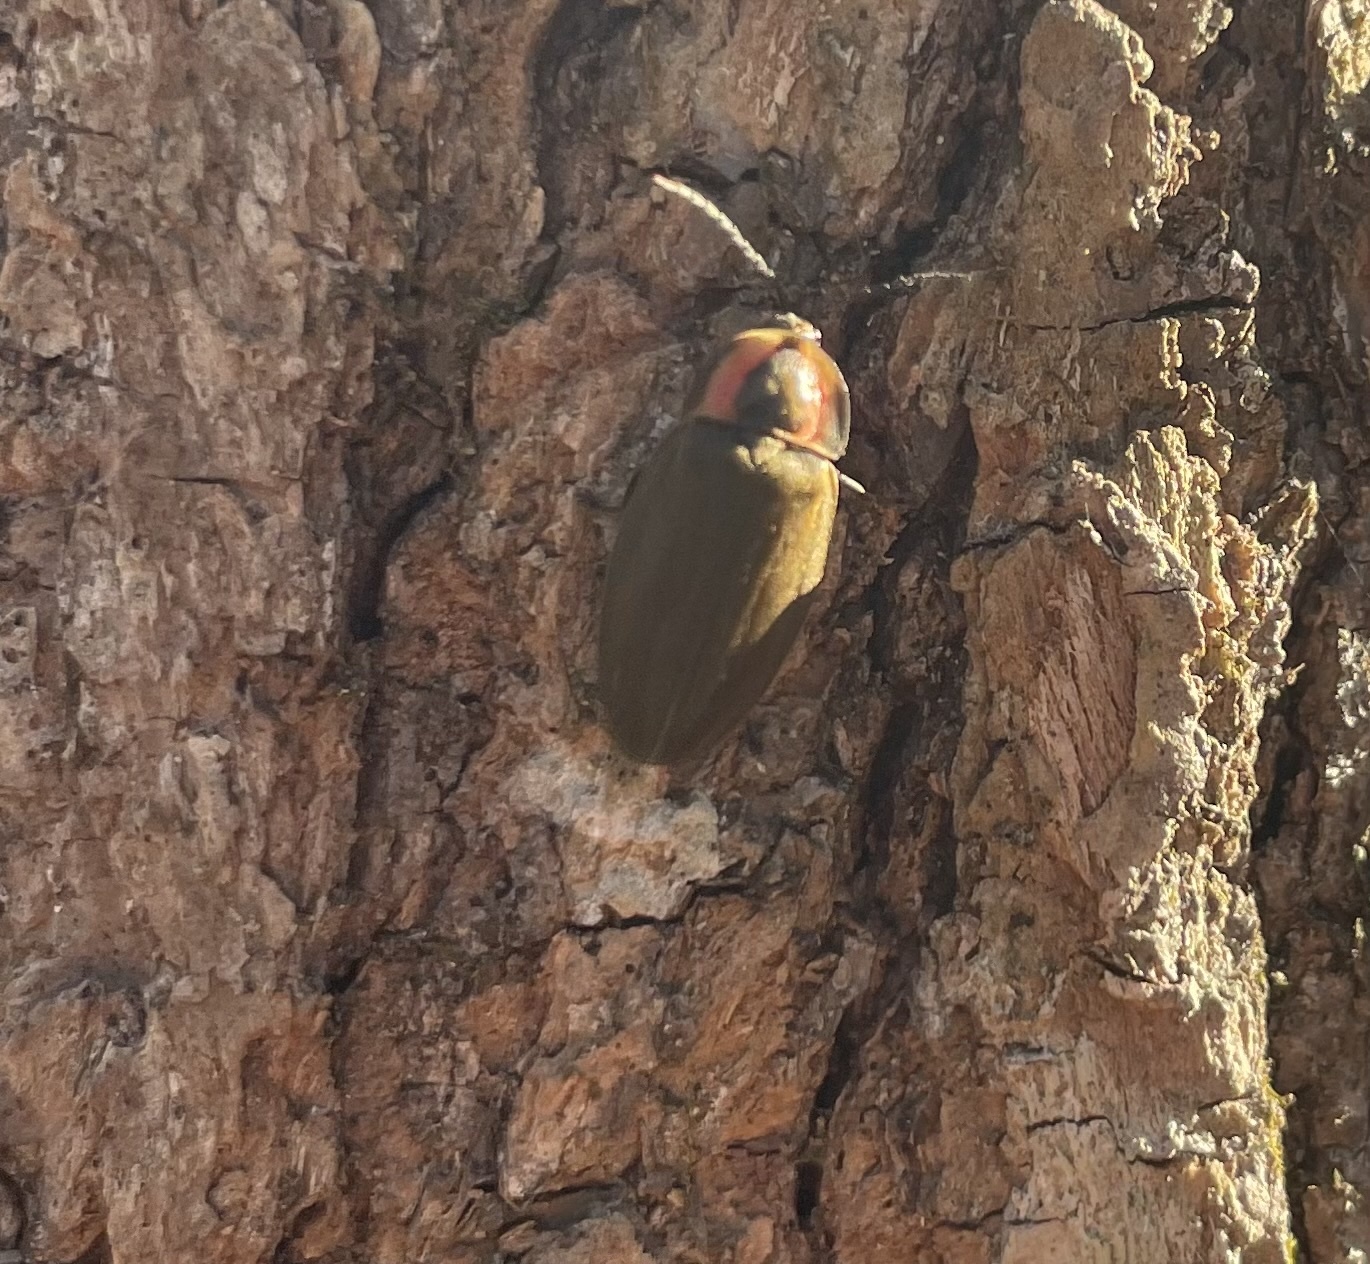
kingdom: Animalia
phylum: Arthropoda
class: Insecta
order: Coleoptera
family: Lampyridae
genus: Photinus
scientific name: Photinus corrusca
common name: Winter firefly
